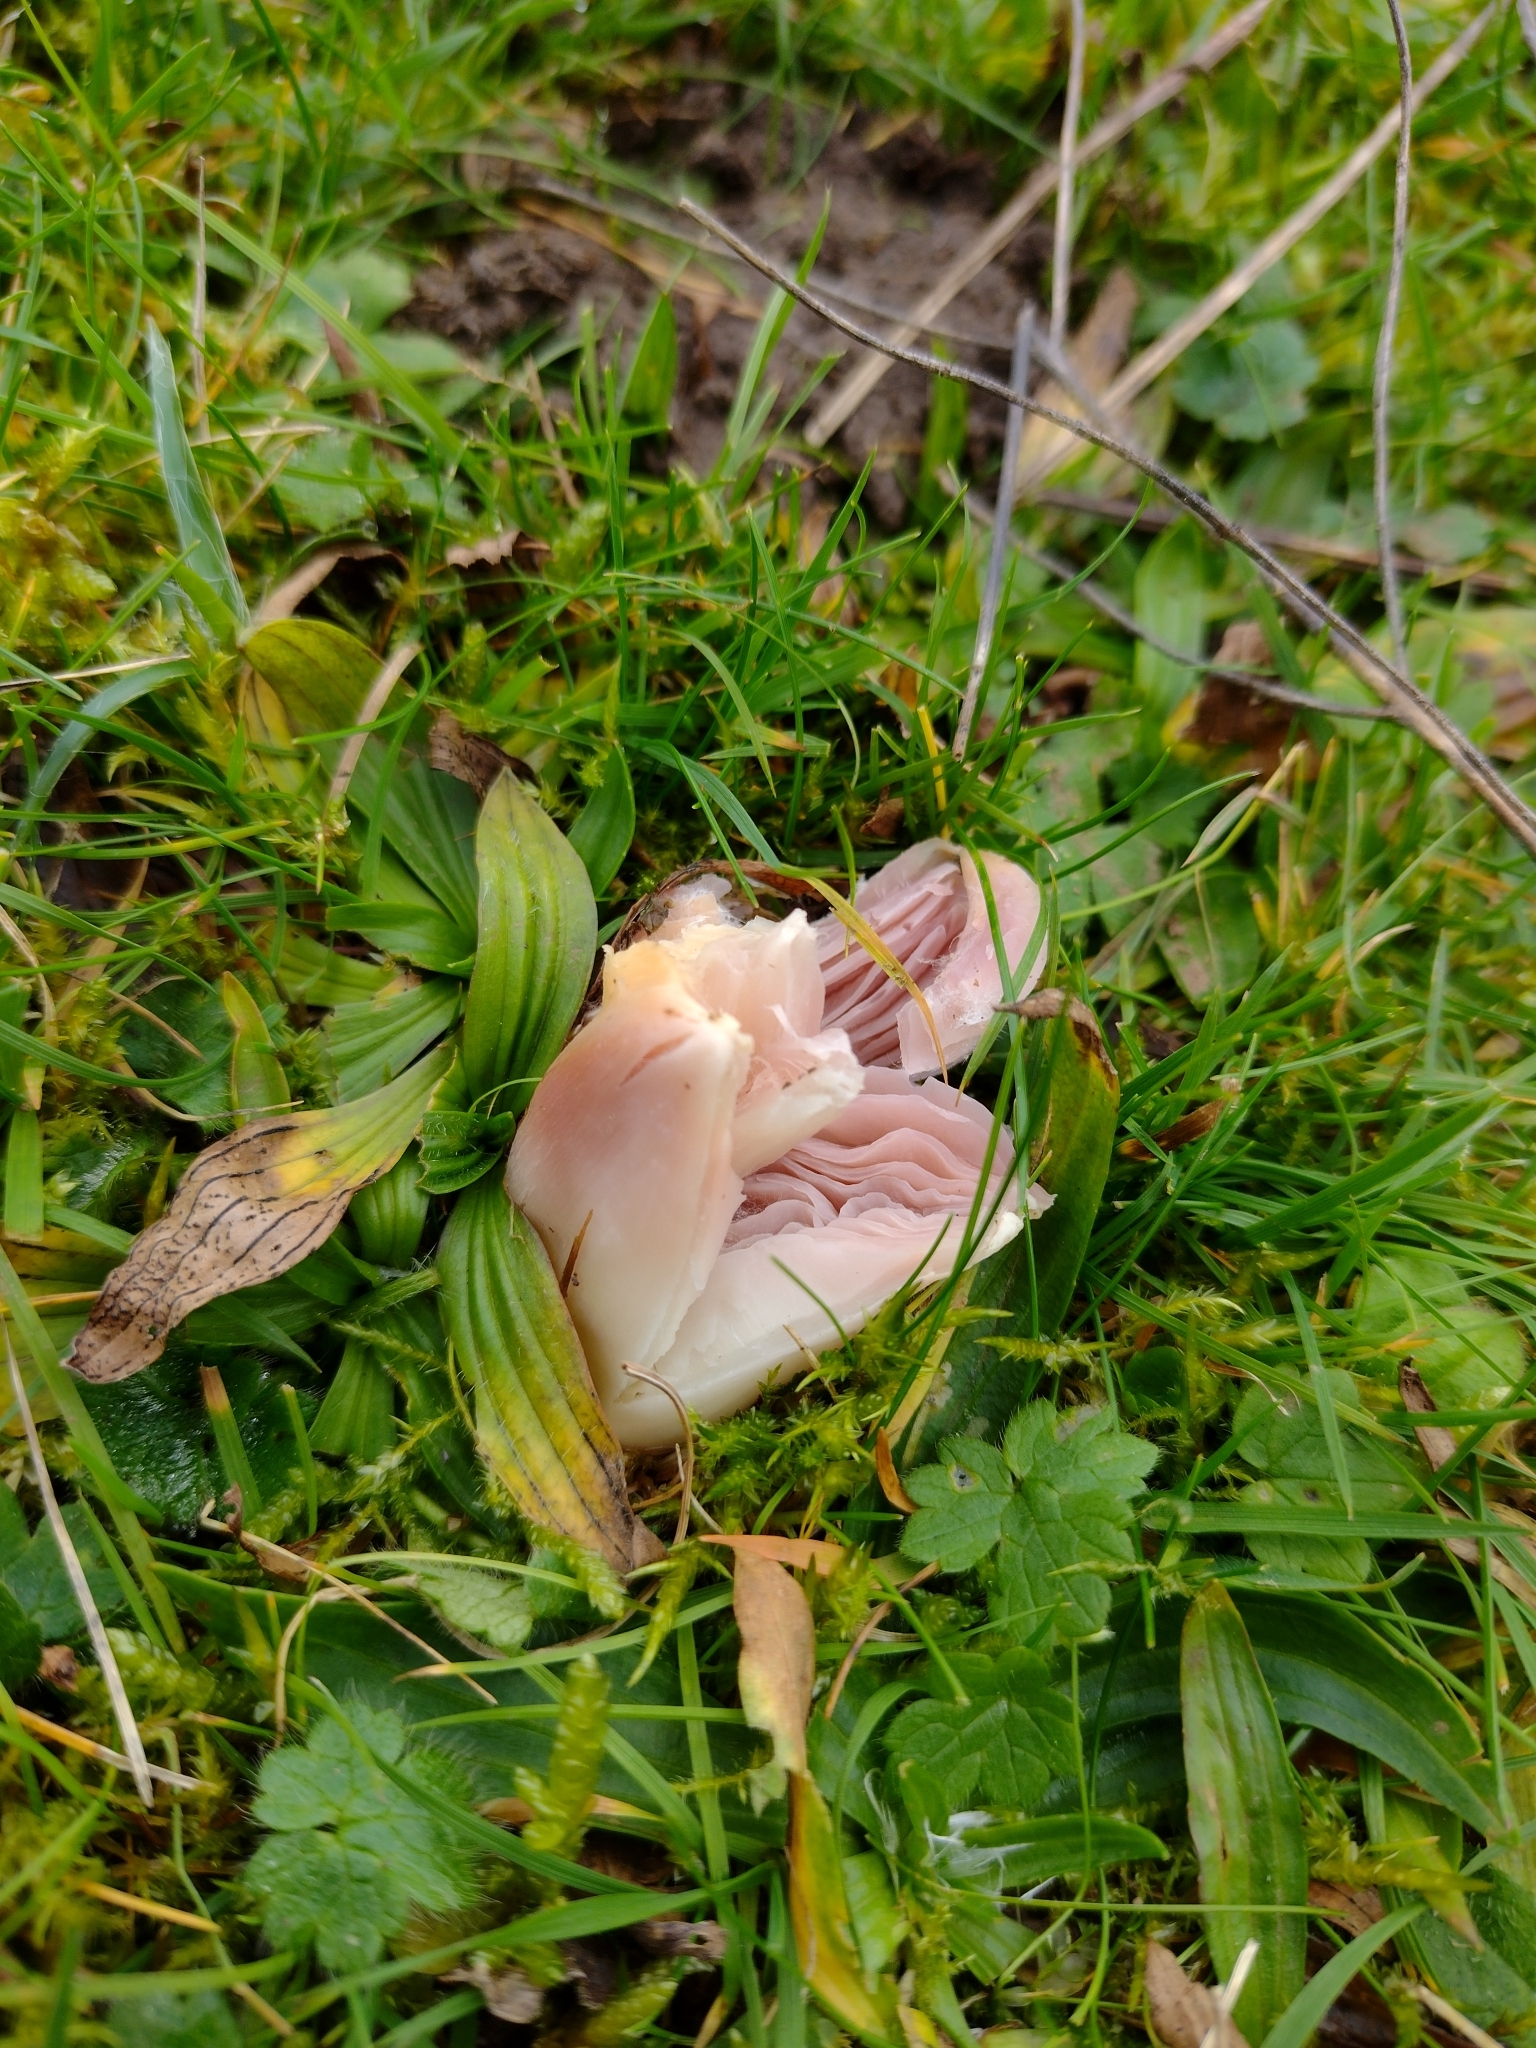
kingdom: Fungi
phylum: Basidiomycota
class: Agaricomycetes
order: Agaricales
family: Hygrophoraceae
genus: Porpolomopsis
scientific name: Porpolomopsis calyptriformis
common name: Pink waxcap
